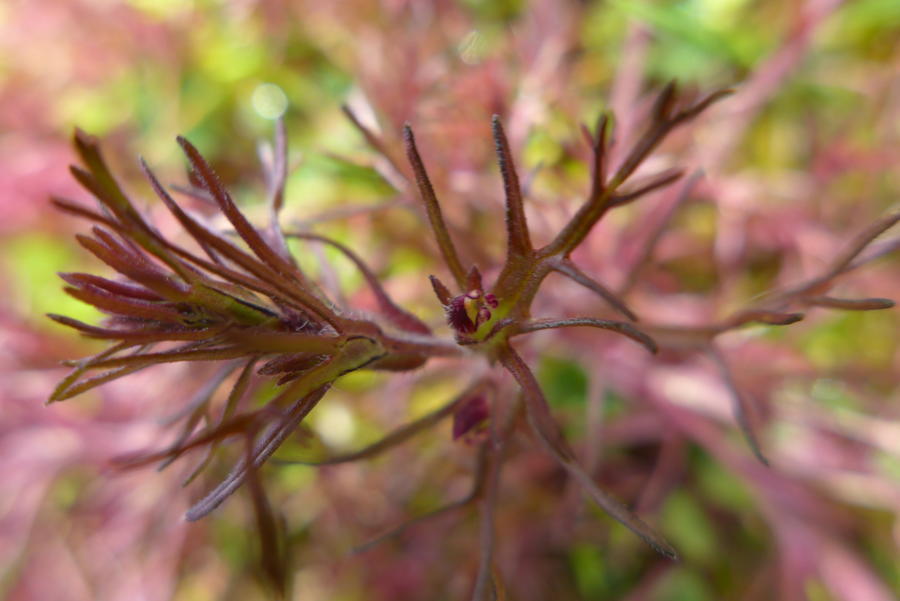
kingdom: Plantae
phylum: Tracheophyta
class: Magnoliopsida
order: Lamiales
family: Orobanchaceae
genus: Triphysaria
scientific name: Triphysaria pusilla
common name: Dwarf false owl-clover
